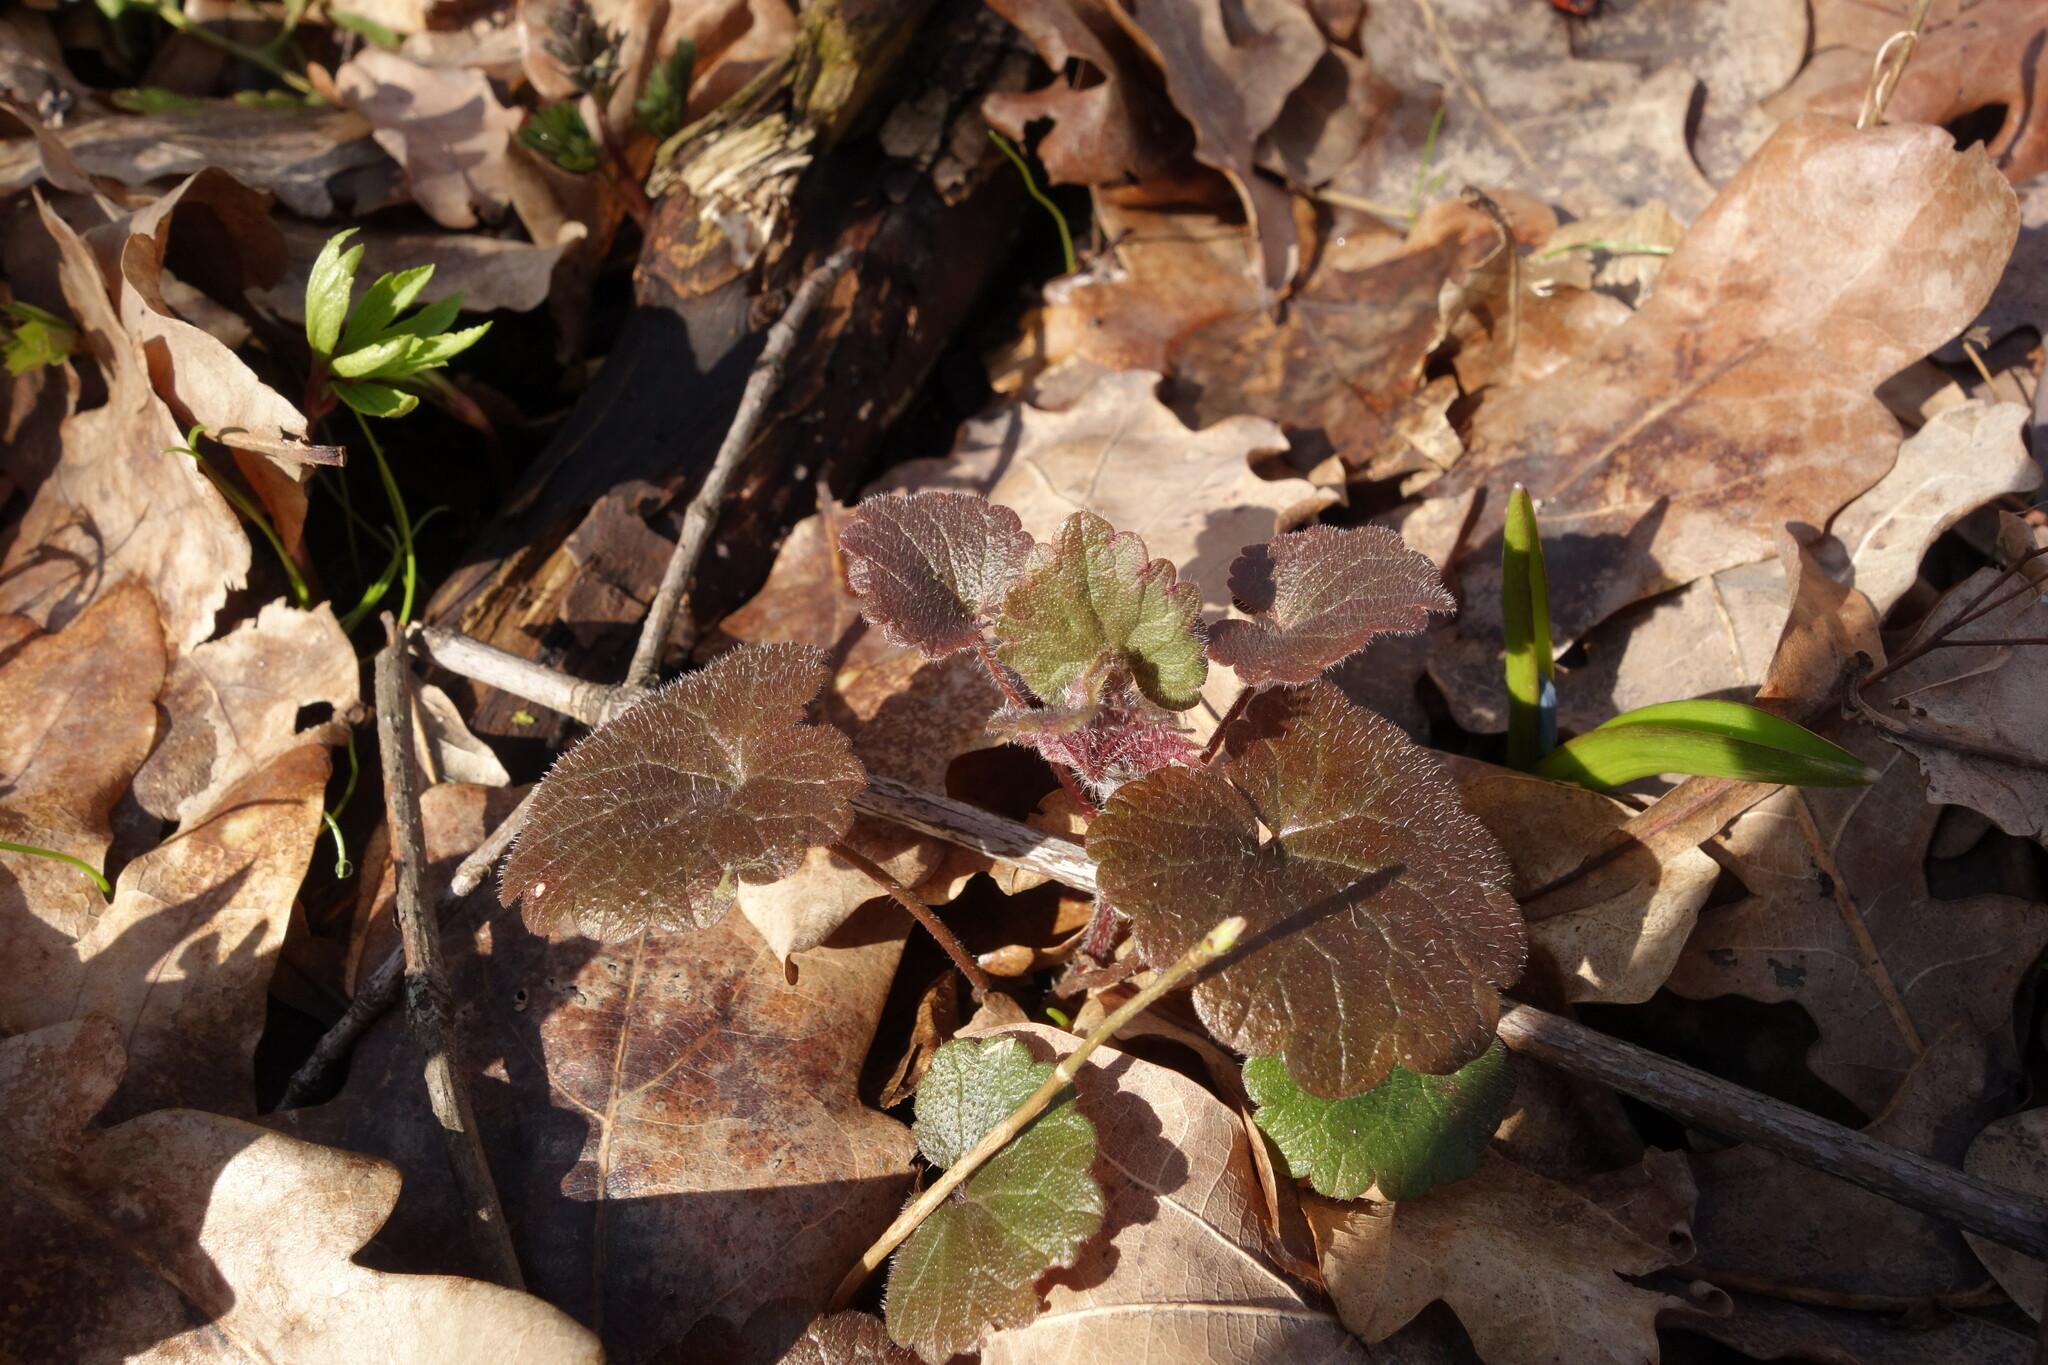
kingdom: Plantae
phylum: Tracheophyta
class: Magnoliopsida
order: Lamiales
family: Lamiaceae
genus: Glechoma
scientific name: Glechoma hederacea
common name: Ground ivy
